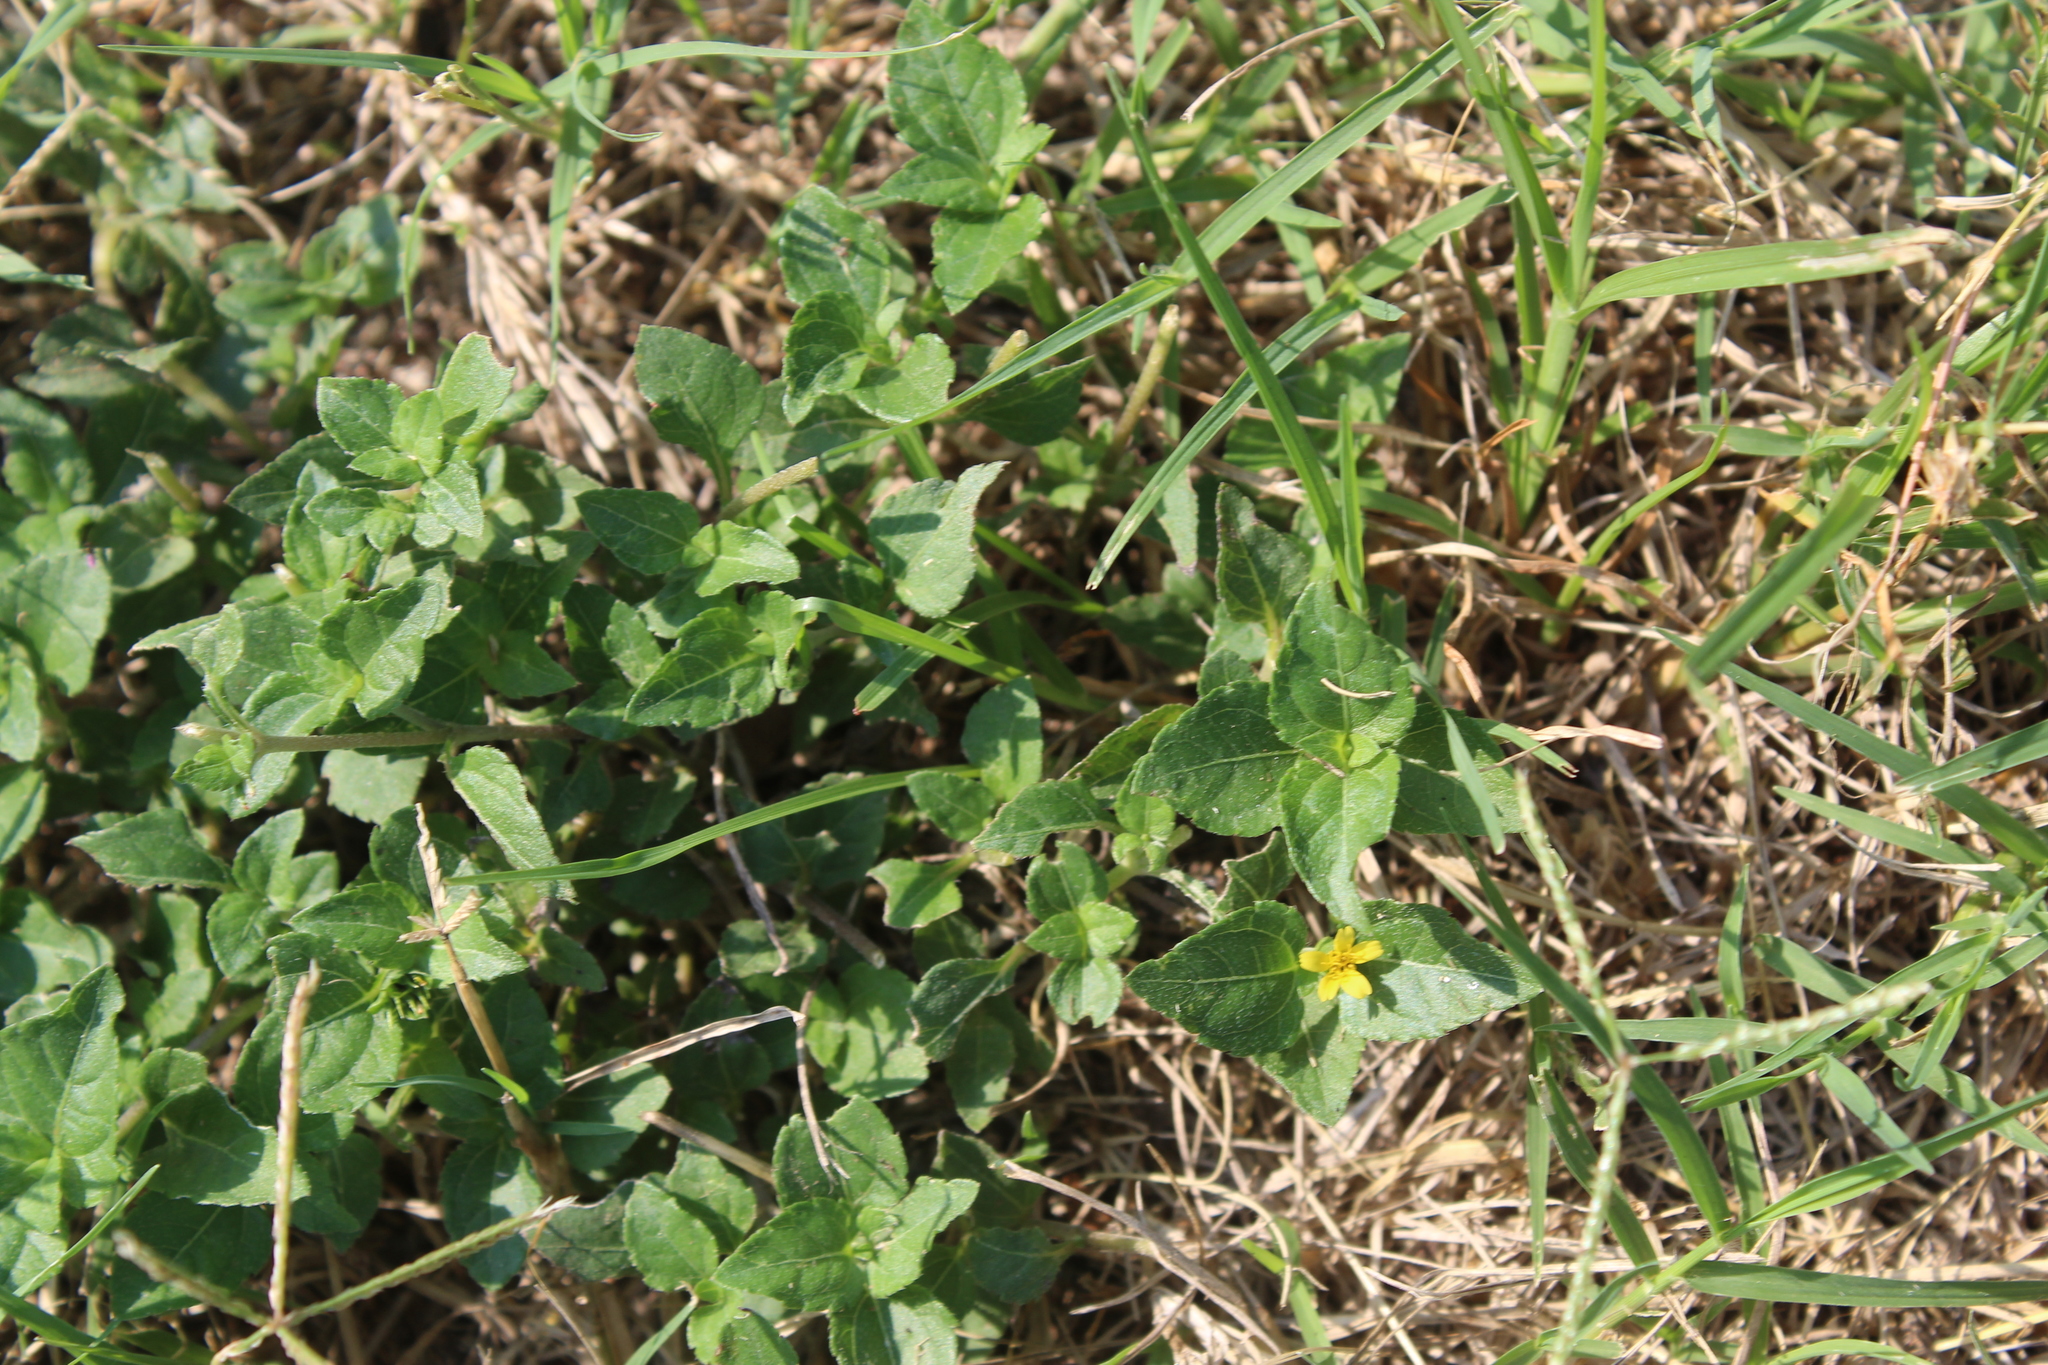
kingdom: Plantae
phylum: Tracheophyta
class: Magnoliopsida
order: Asterales
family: Asteraceae
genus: Calyptocarpus
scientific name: Calyptocarpus vialis
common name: Straggler daisy
